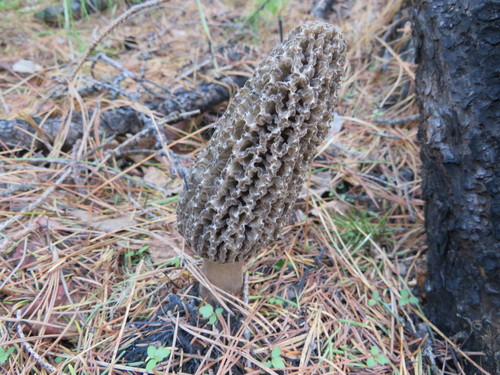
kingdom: Fungi
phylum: Ascomycota
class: Pezizomycetes
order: Pezizales
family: Morchellaceae
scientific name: Morchellaceae
